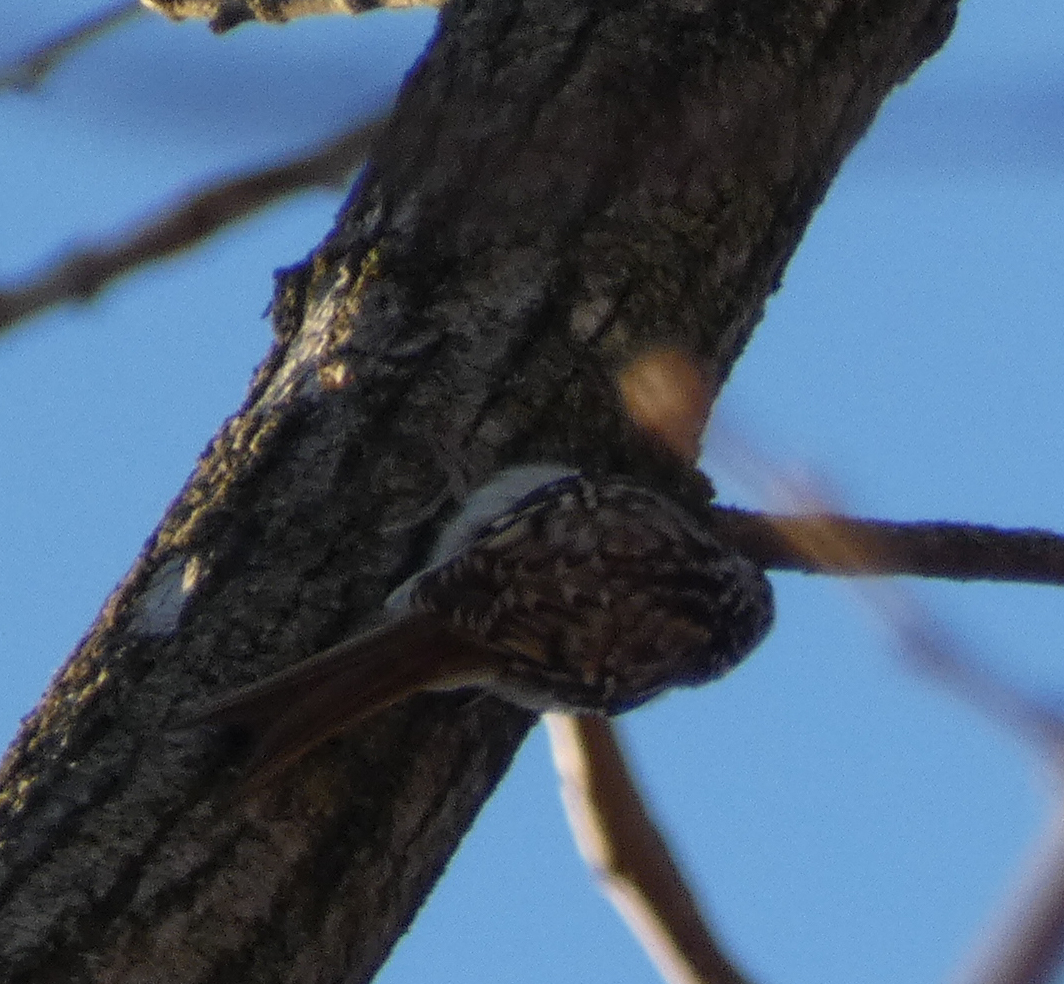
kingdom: Animalia
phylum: Chordata
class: Aves
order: Passeriformes
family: Certhiidae
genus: Certhia
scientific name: Certhia americana
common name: Brown creeper
